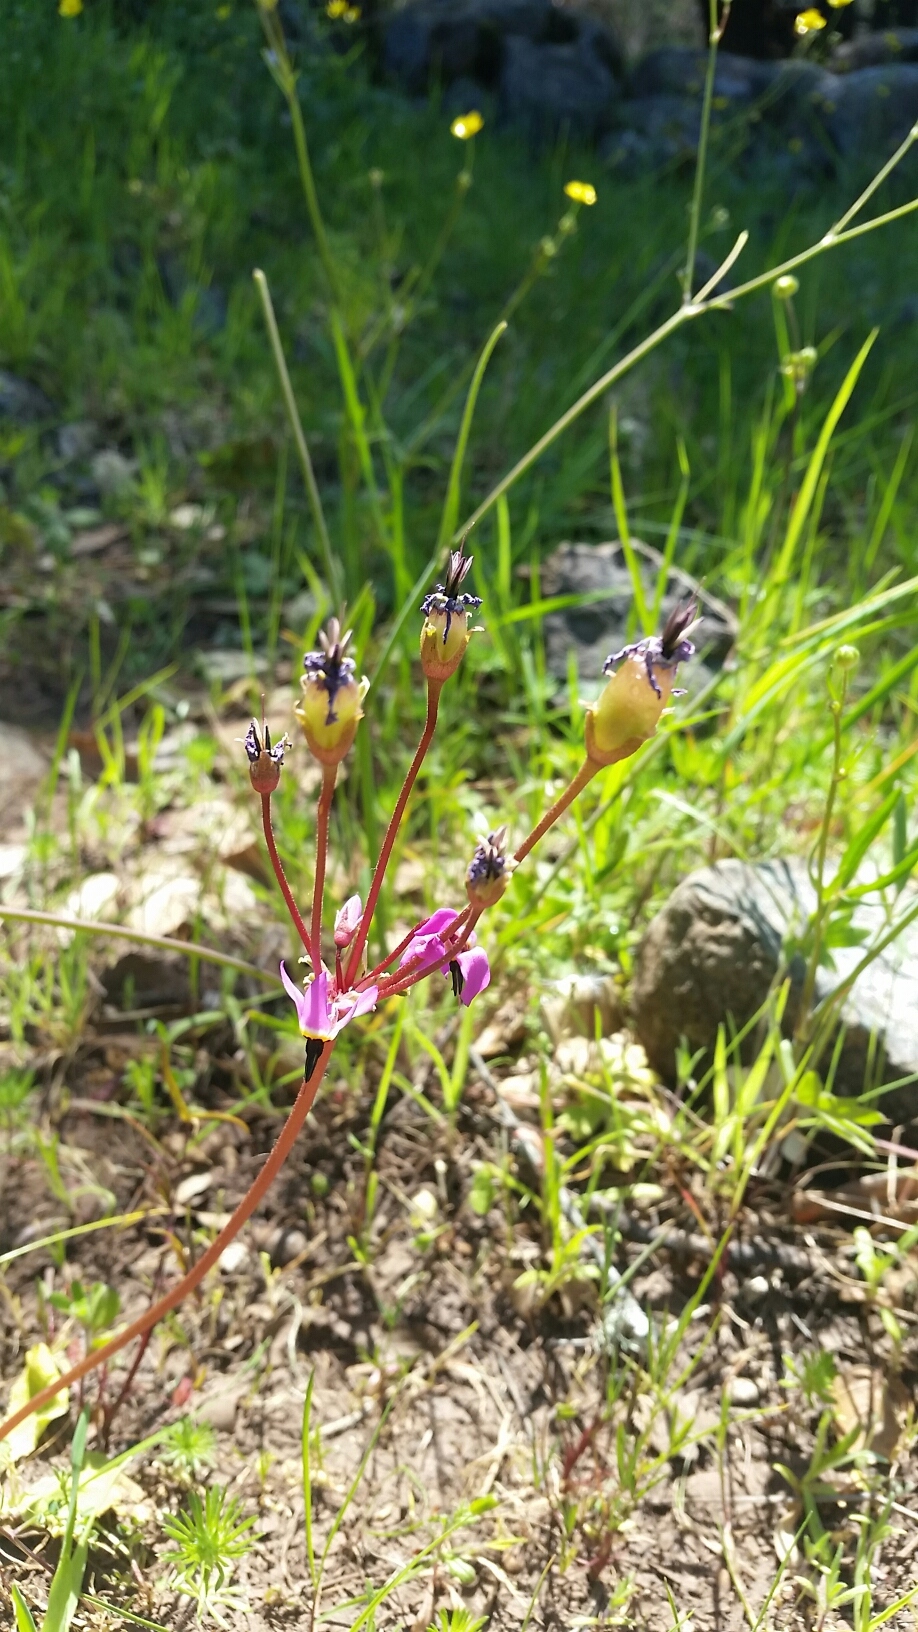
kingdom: Plantae
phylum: Tracheophyta
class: Magnoliopsida
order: Ericales
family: Primulaceae
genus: Dodecatheon
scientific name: Dodecatheon hendersonii
